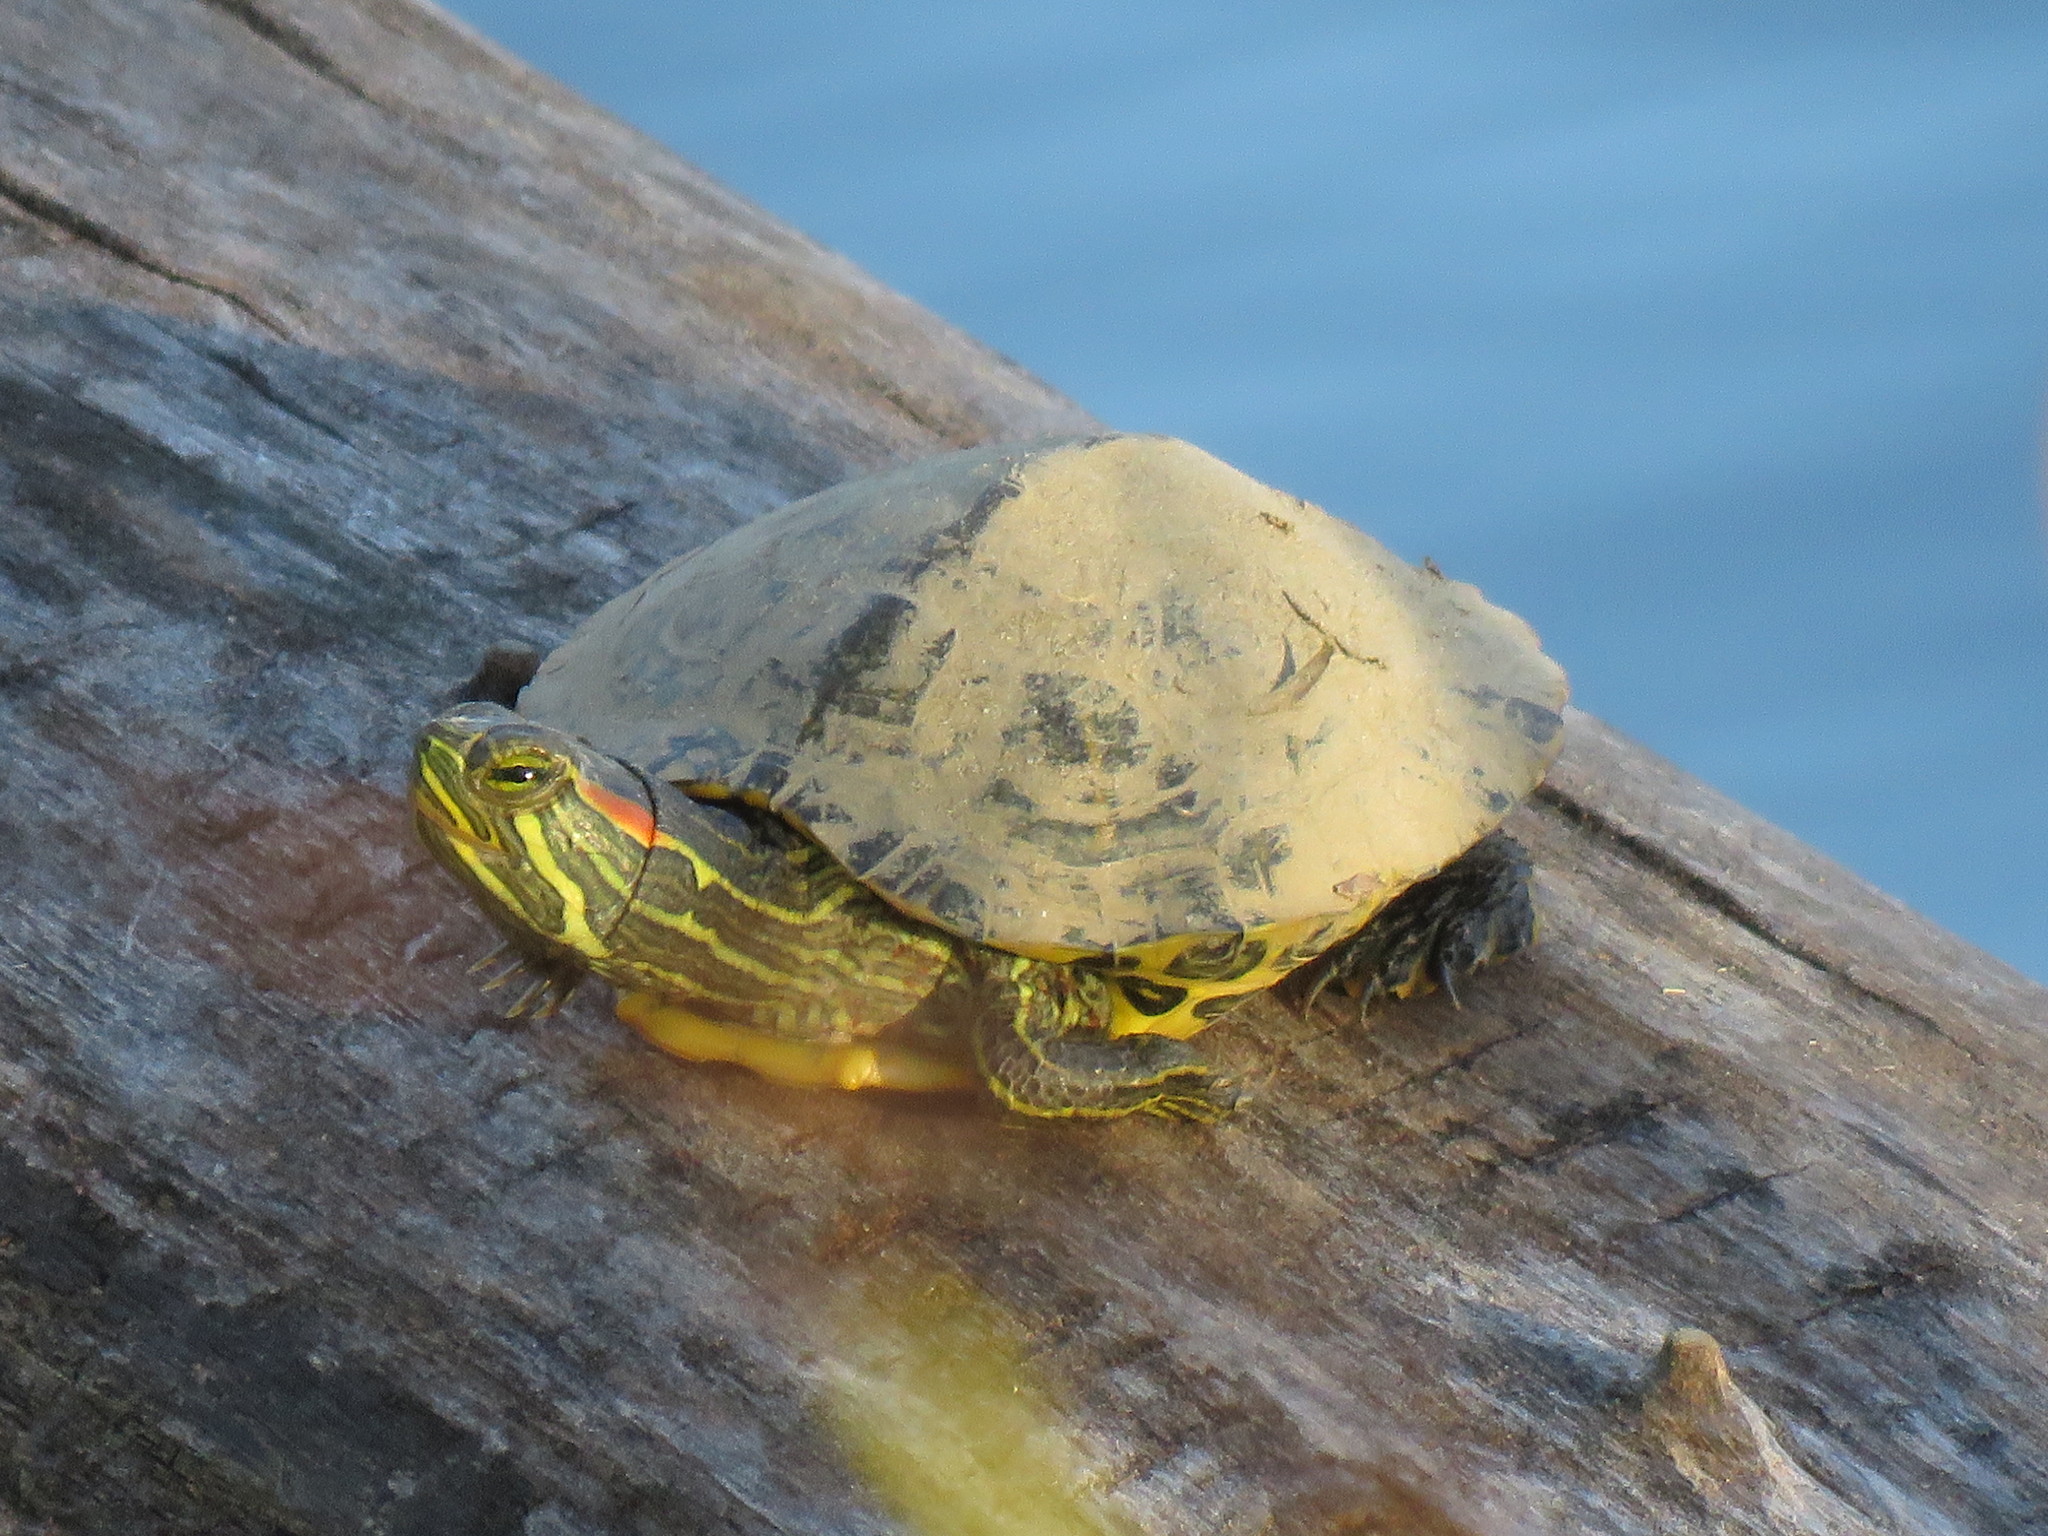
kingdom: Animalia
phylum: Chordata
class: Testudines
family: Emydidae
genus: Trachemys
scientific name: Trachemys scripta
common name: Slider
